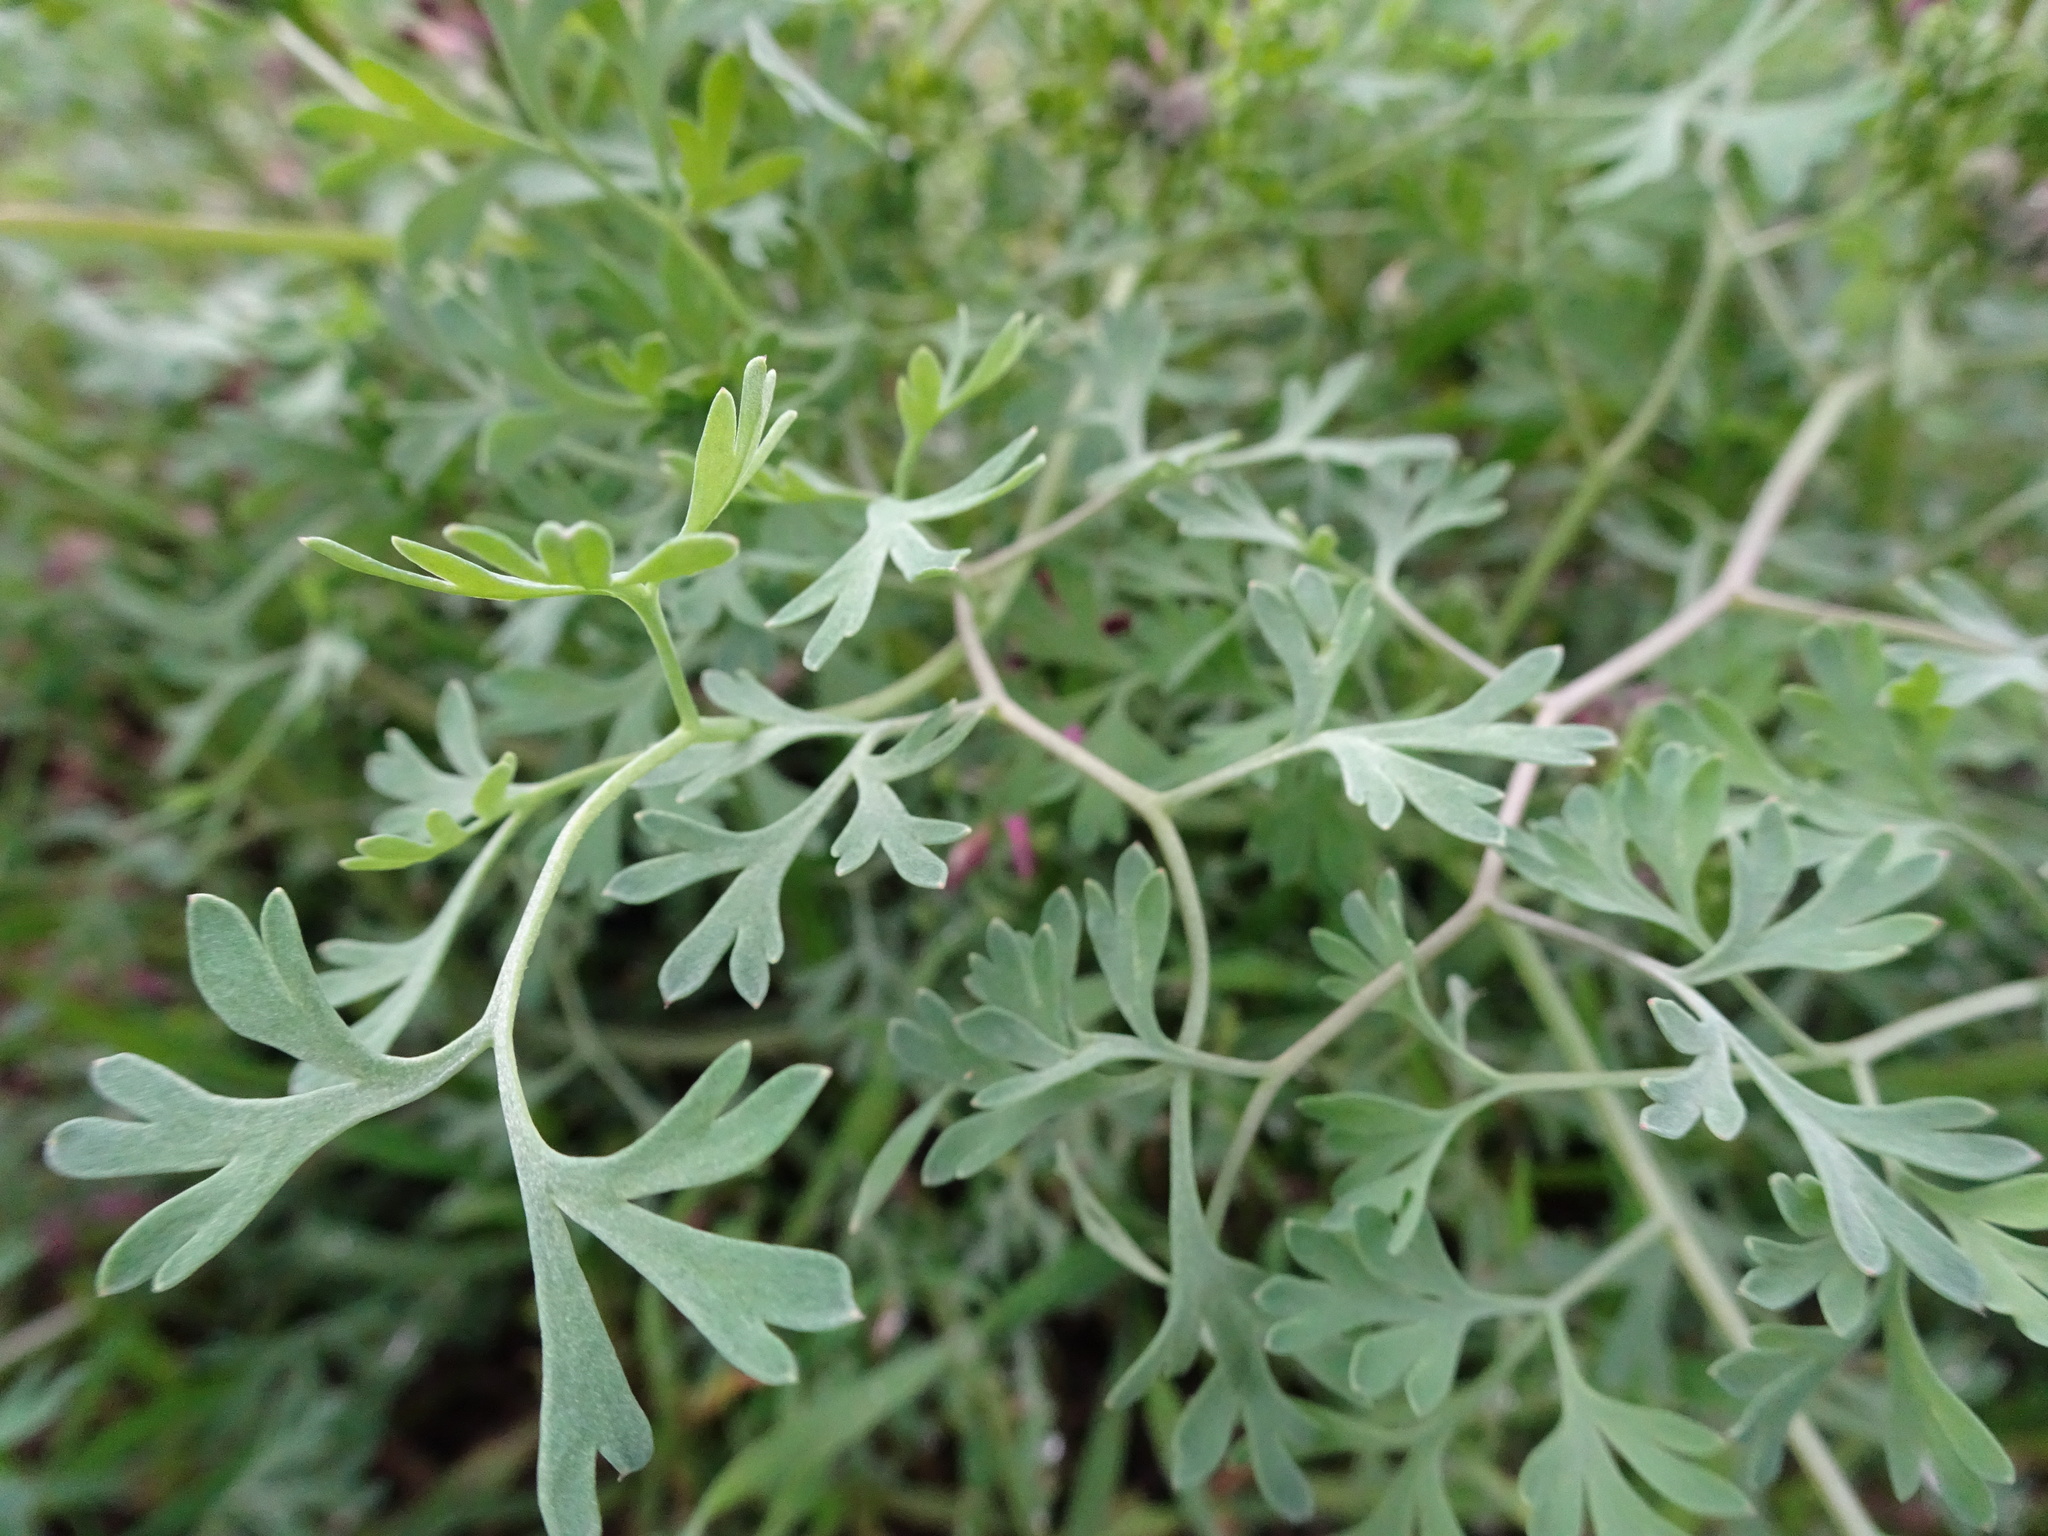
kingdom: Plantae
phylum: Tracheophyta
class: Magnoliopsida
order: Ranunculales
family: Papaveraceae
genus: Fumaria
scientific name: Fumaria officinalis
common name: Common fumitory
